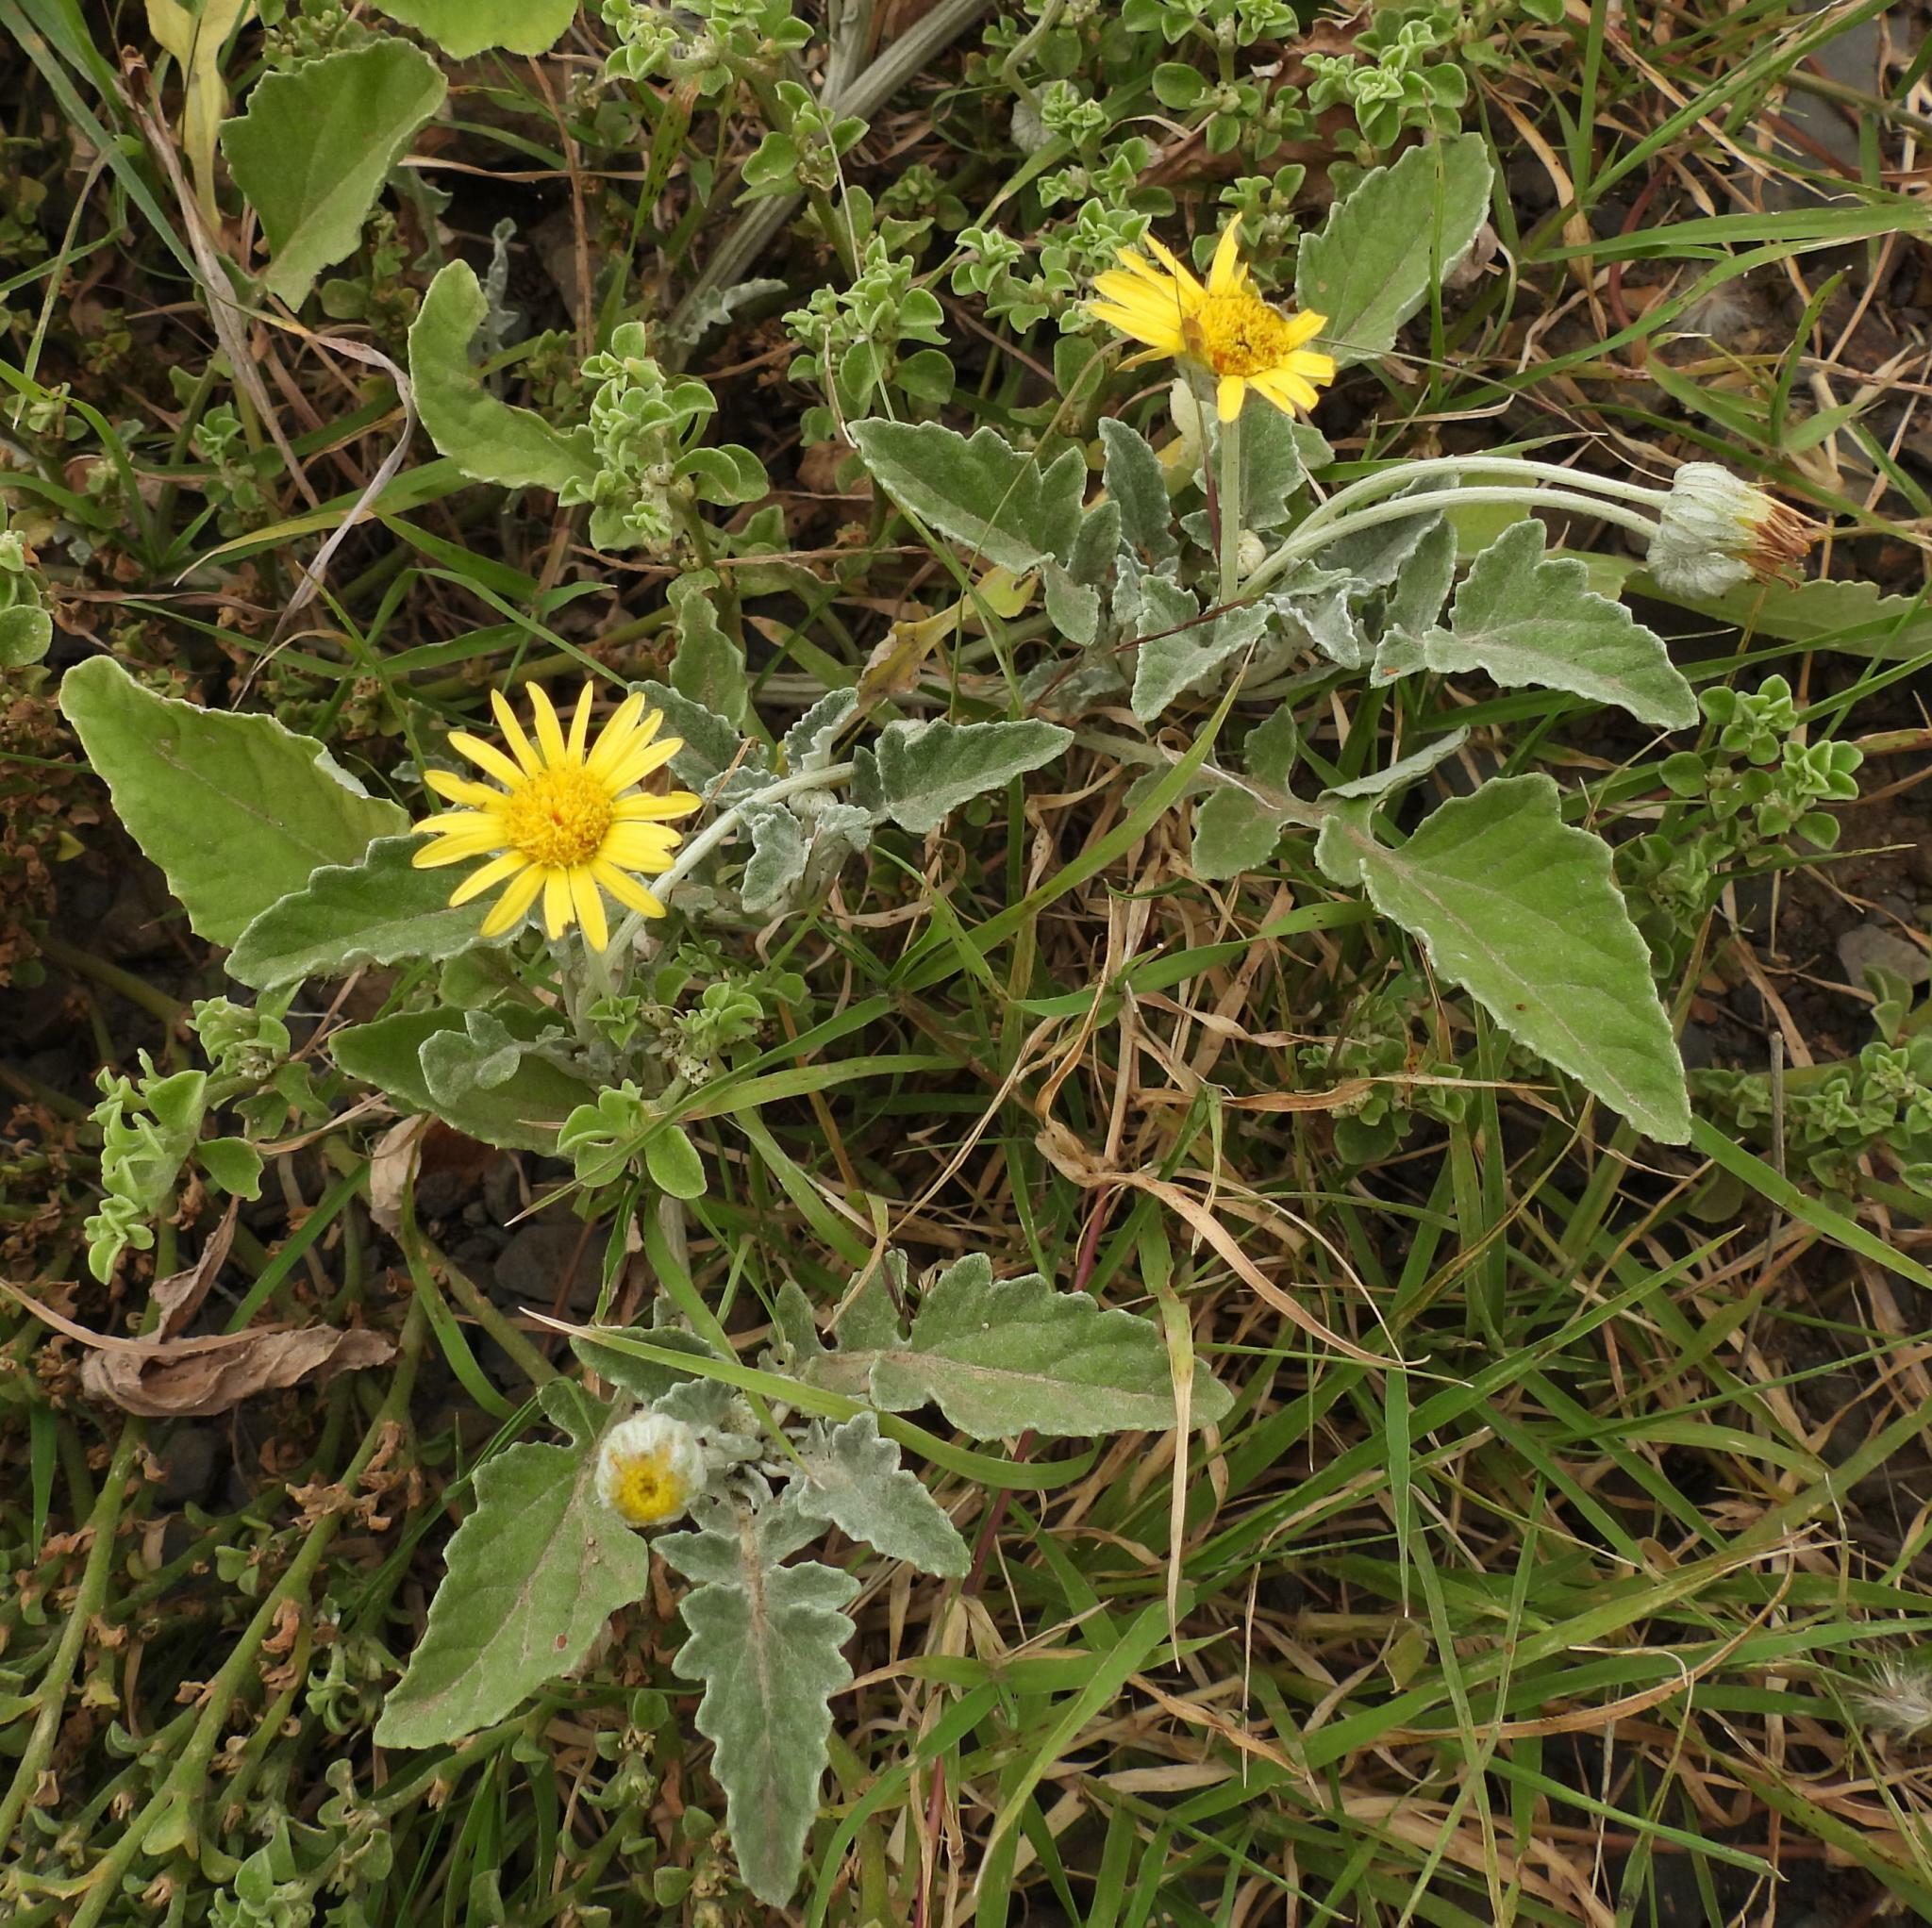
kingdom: Plantae
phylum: Tracheophyta
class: Magnoliopsida
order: Asterales
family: Asteraceae
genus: Arctotis
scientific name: Arctotis arctotoides
